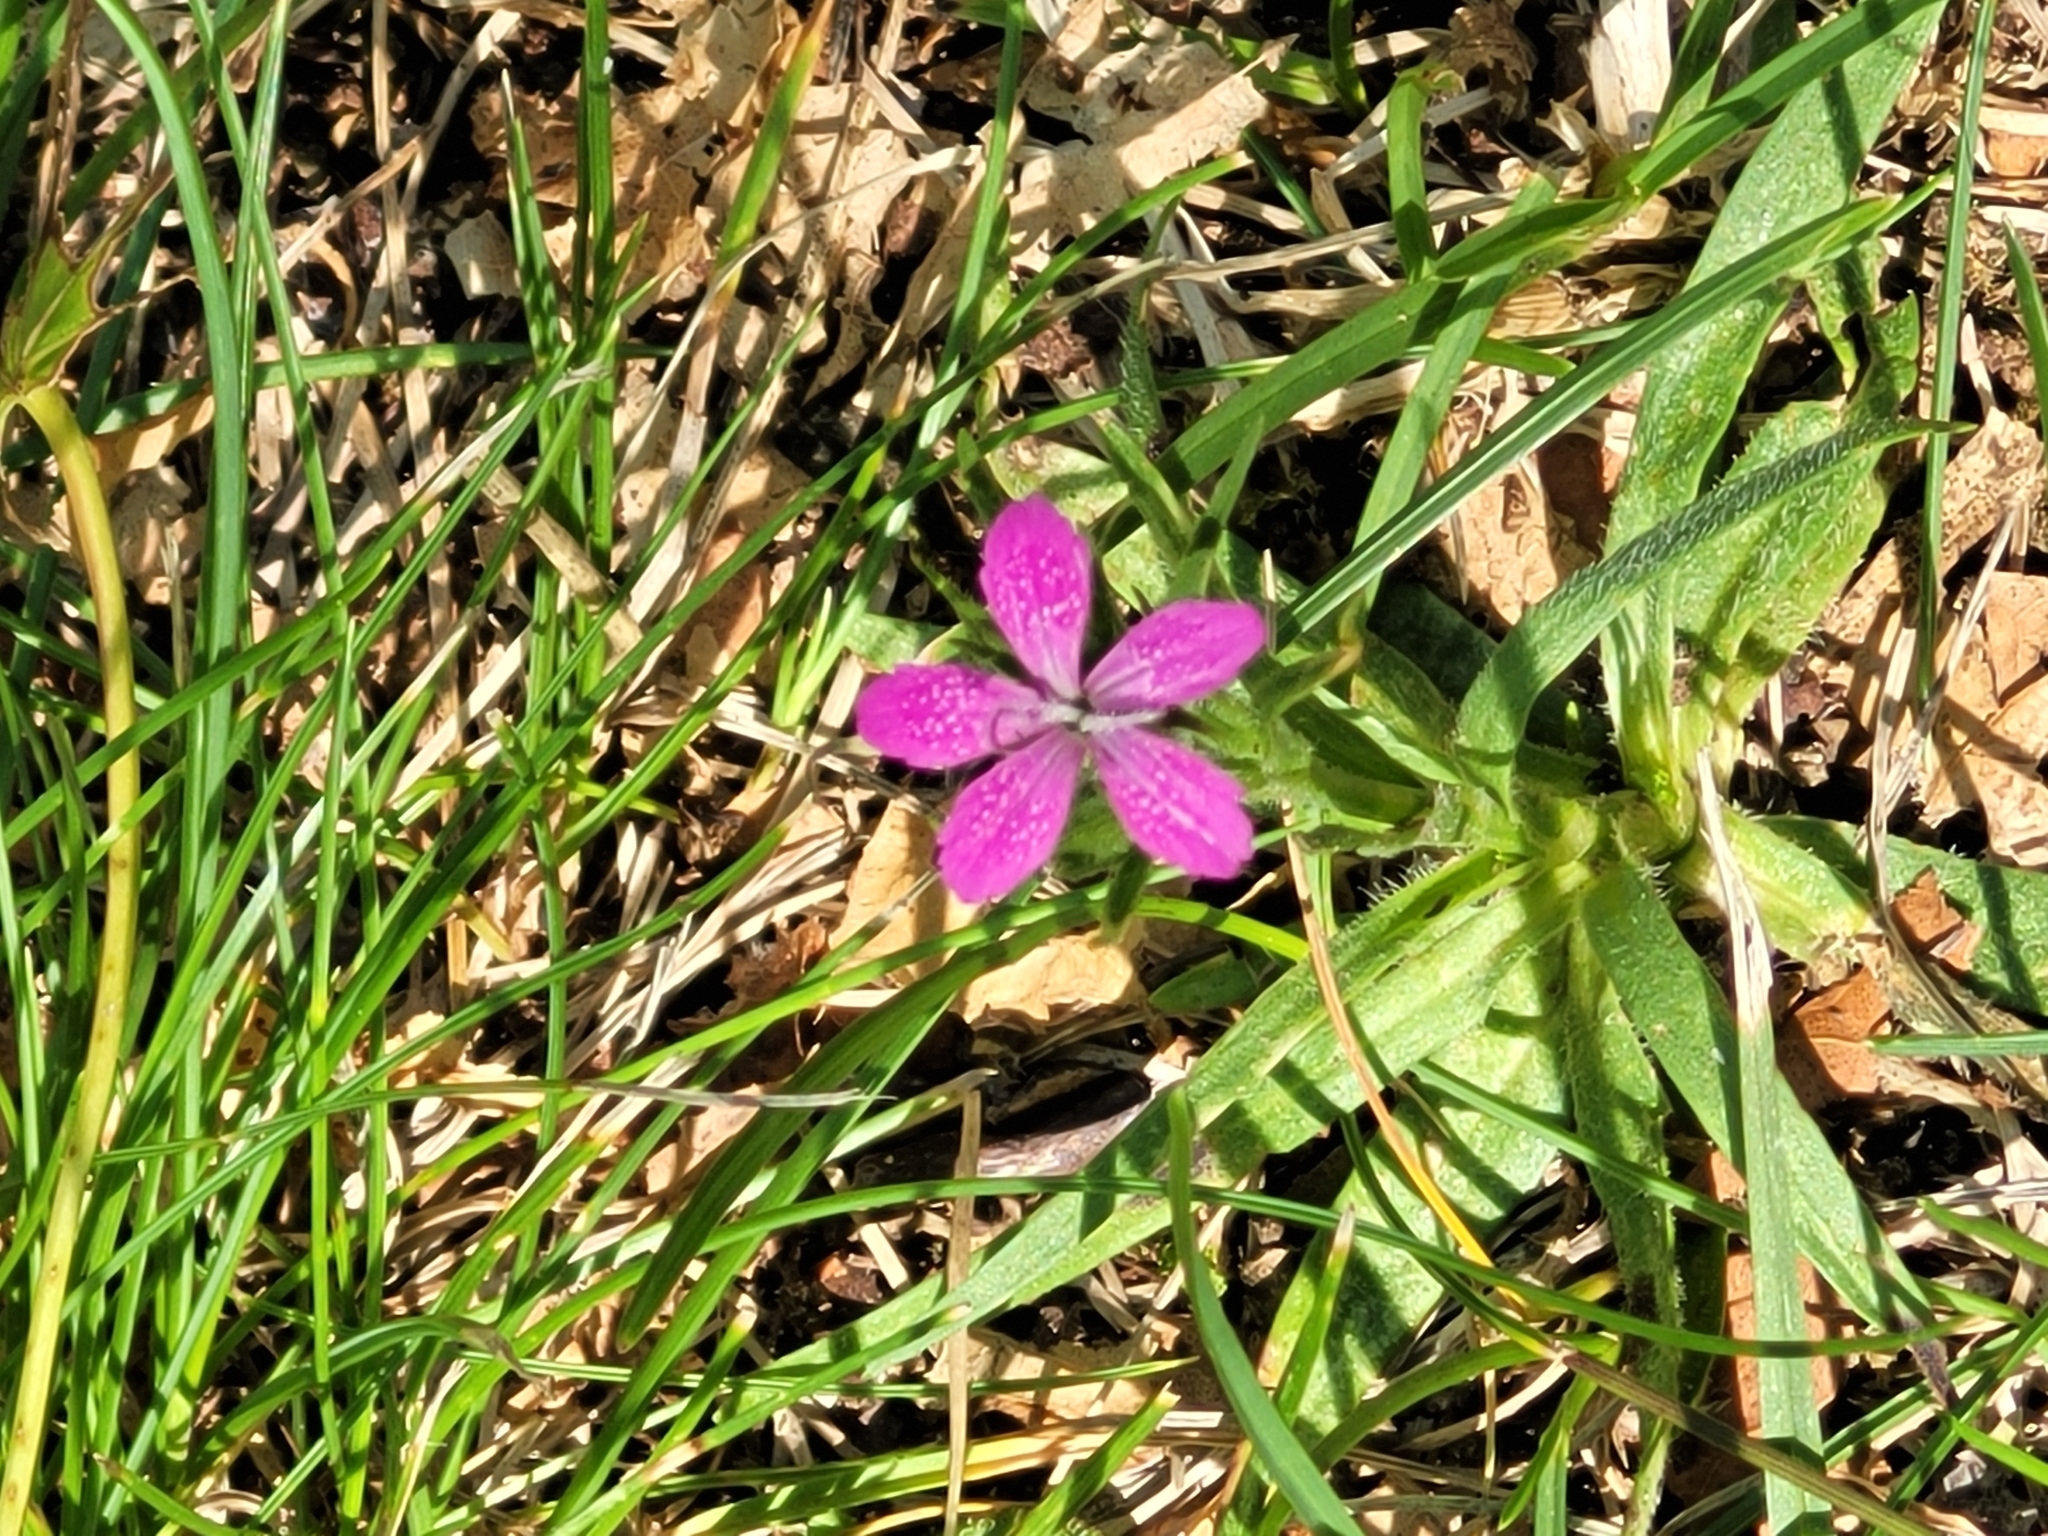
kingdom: Plantae
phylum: Tracheophyta
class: Magnoliopsida
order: Caryophyllales
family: Caryophyllaceae
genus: Dianthus
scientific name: Dianthus armeria
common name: Deptford pink
